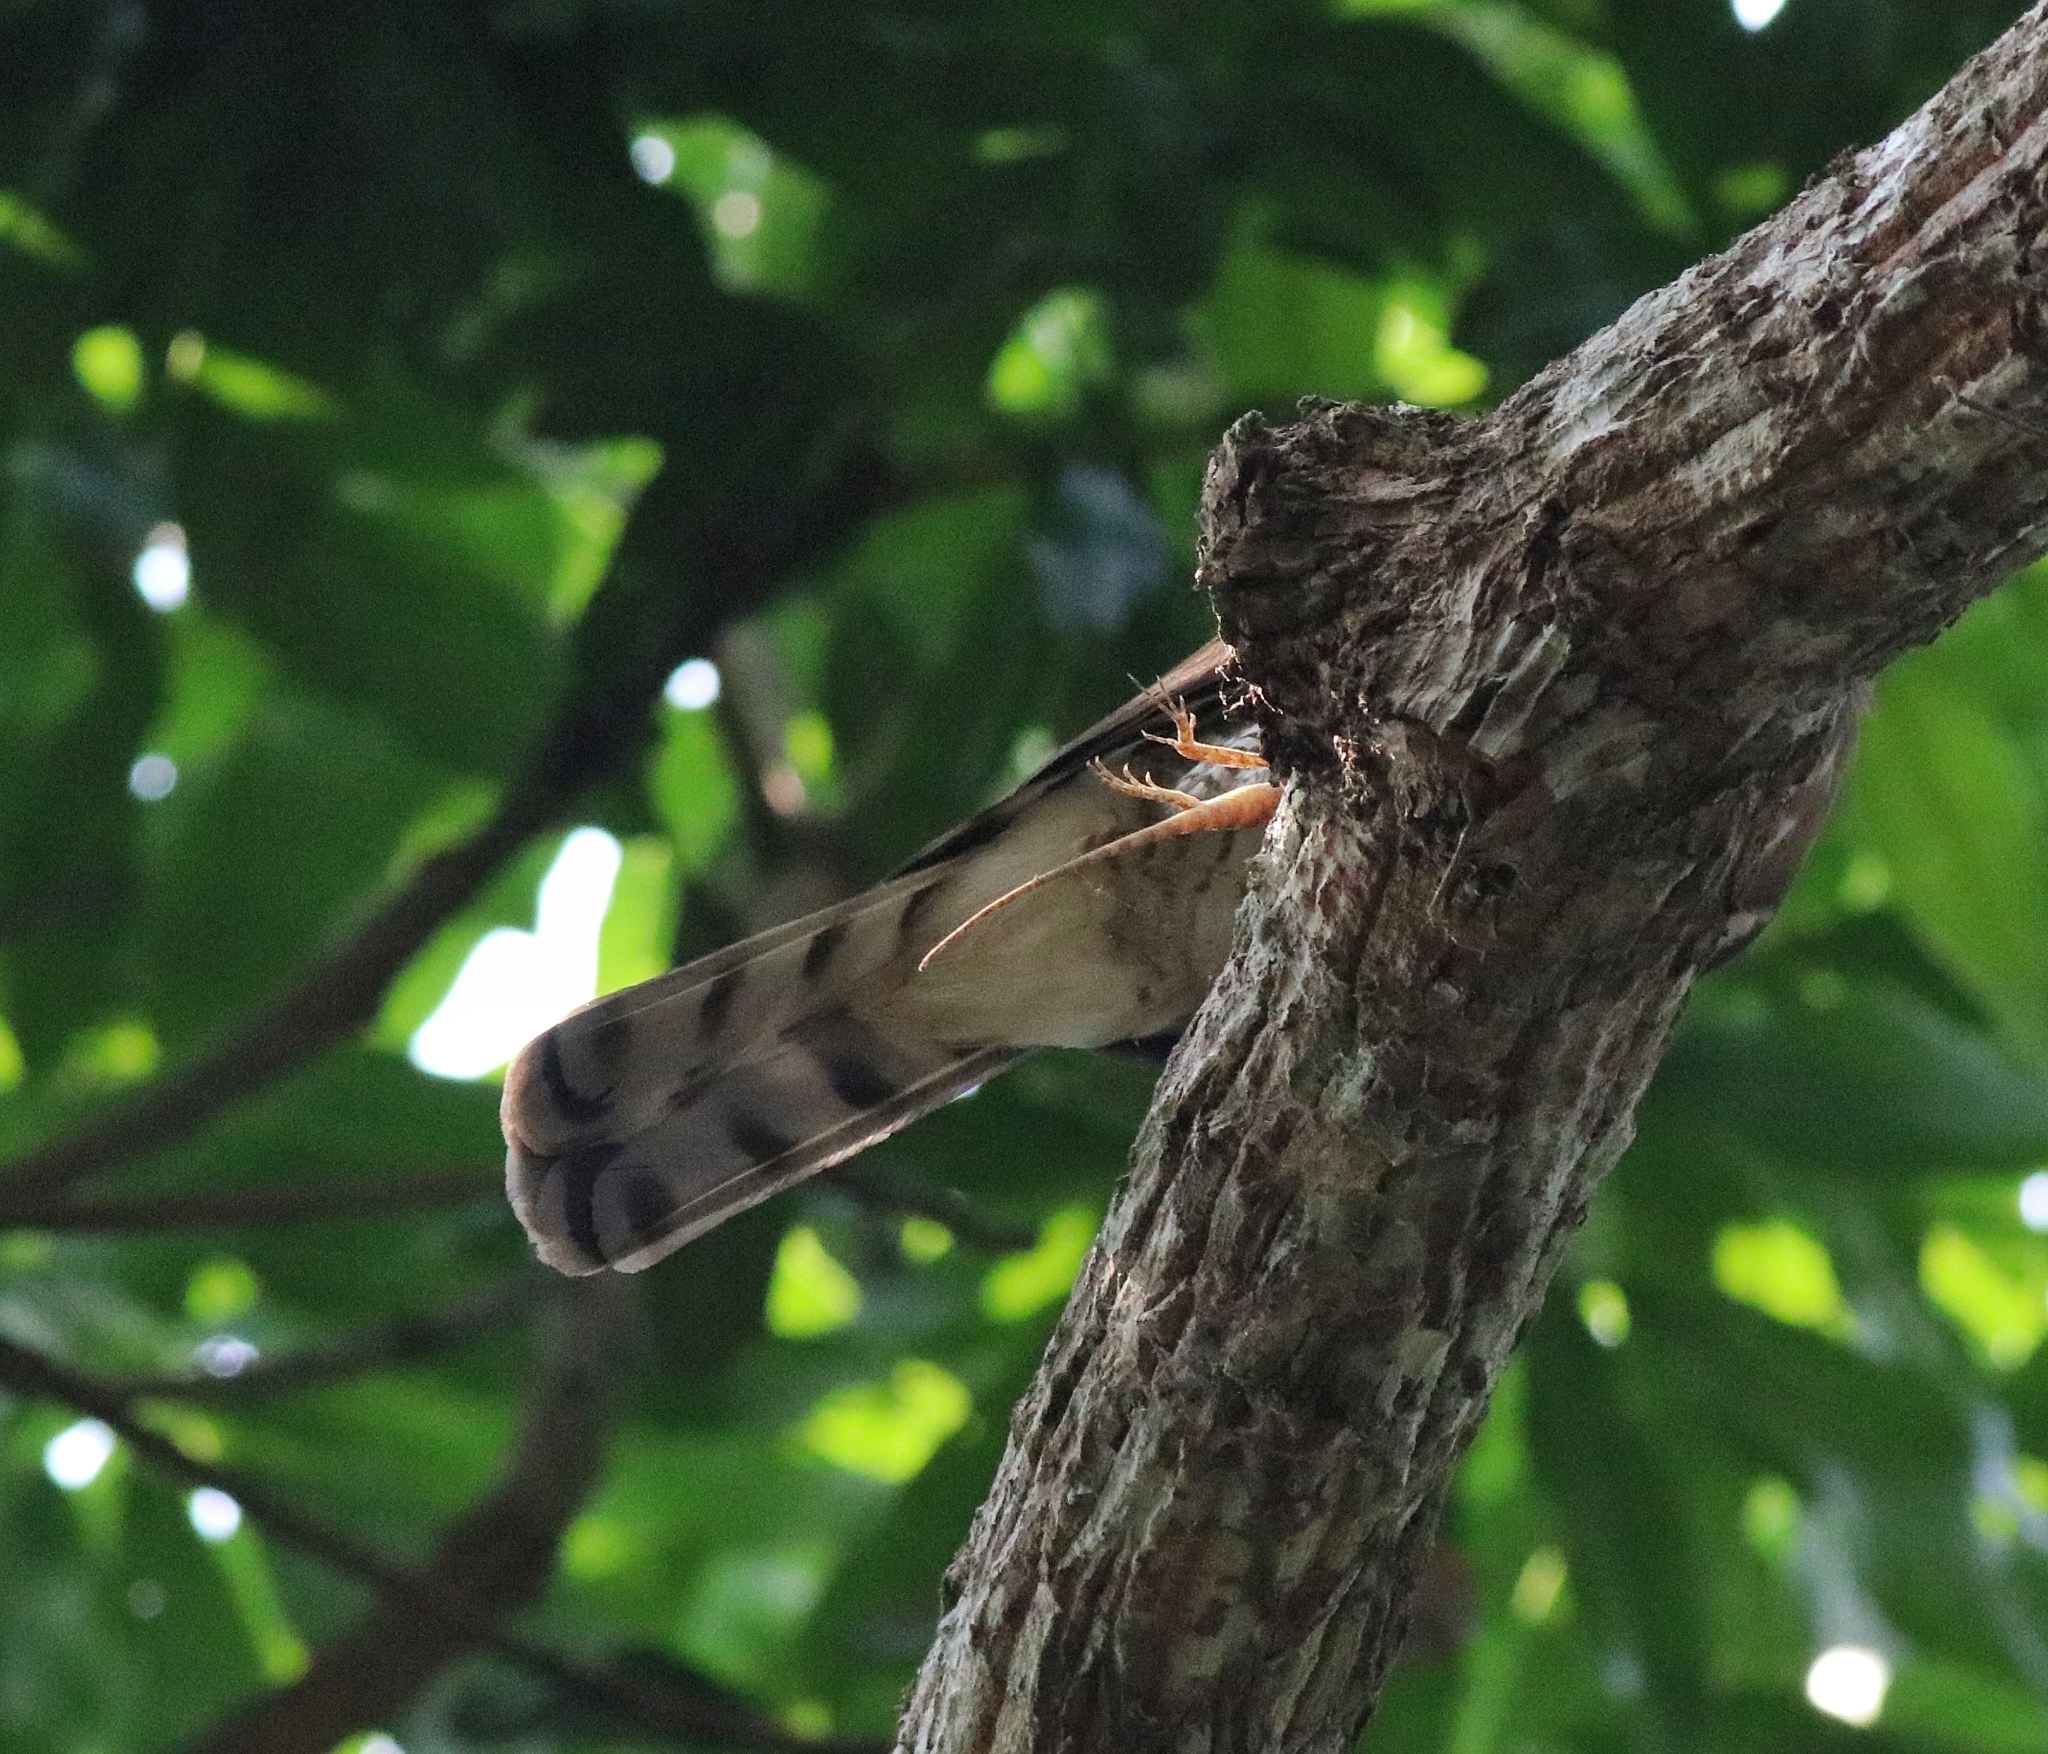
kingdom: Animalia
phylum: Chordata
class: Aves
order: Accipitriformes
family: Accipitridae
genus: Accipiter
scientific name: Accipiter trivirgatus
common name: Crested goshawk
